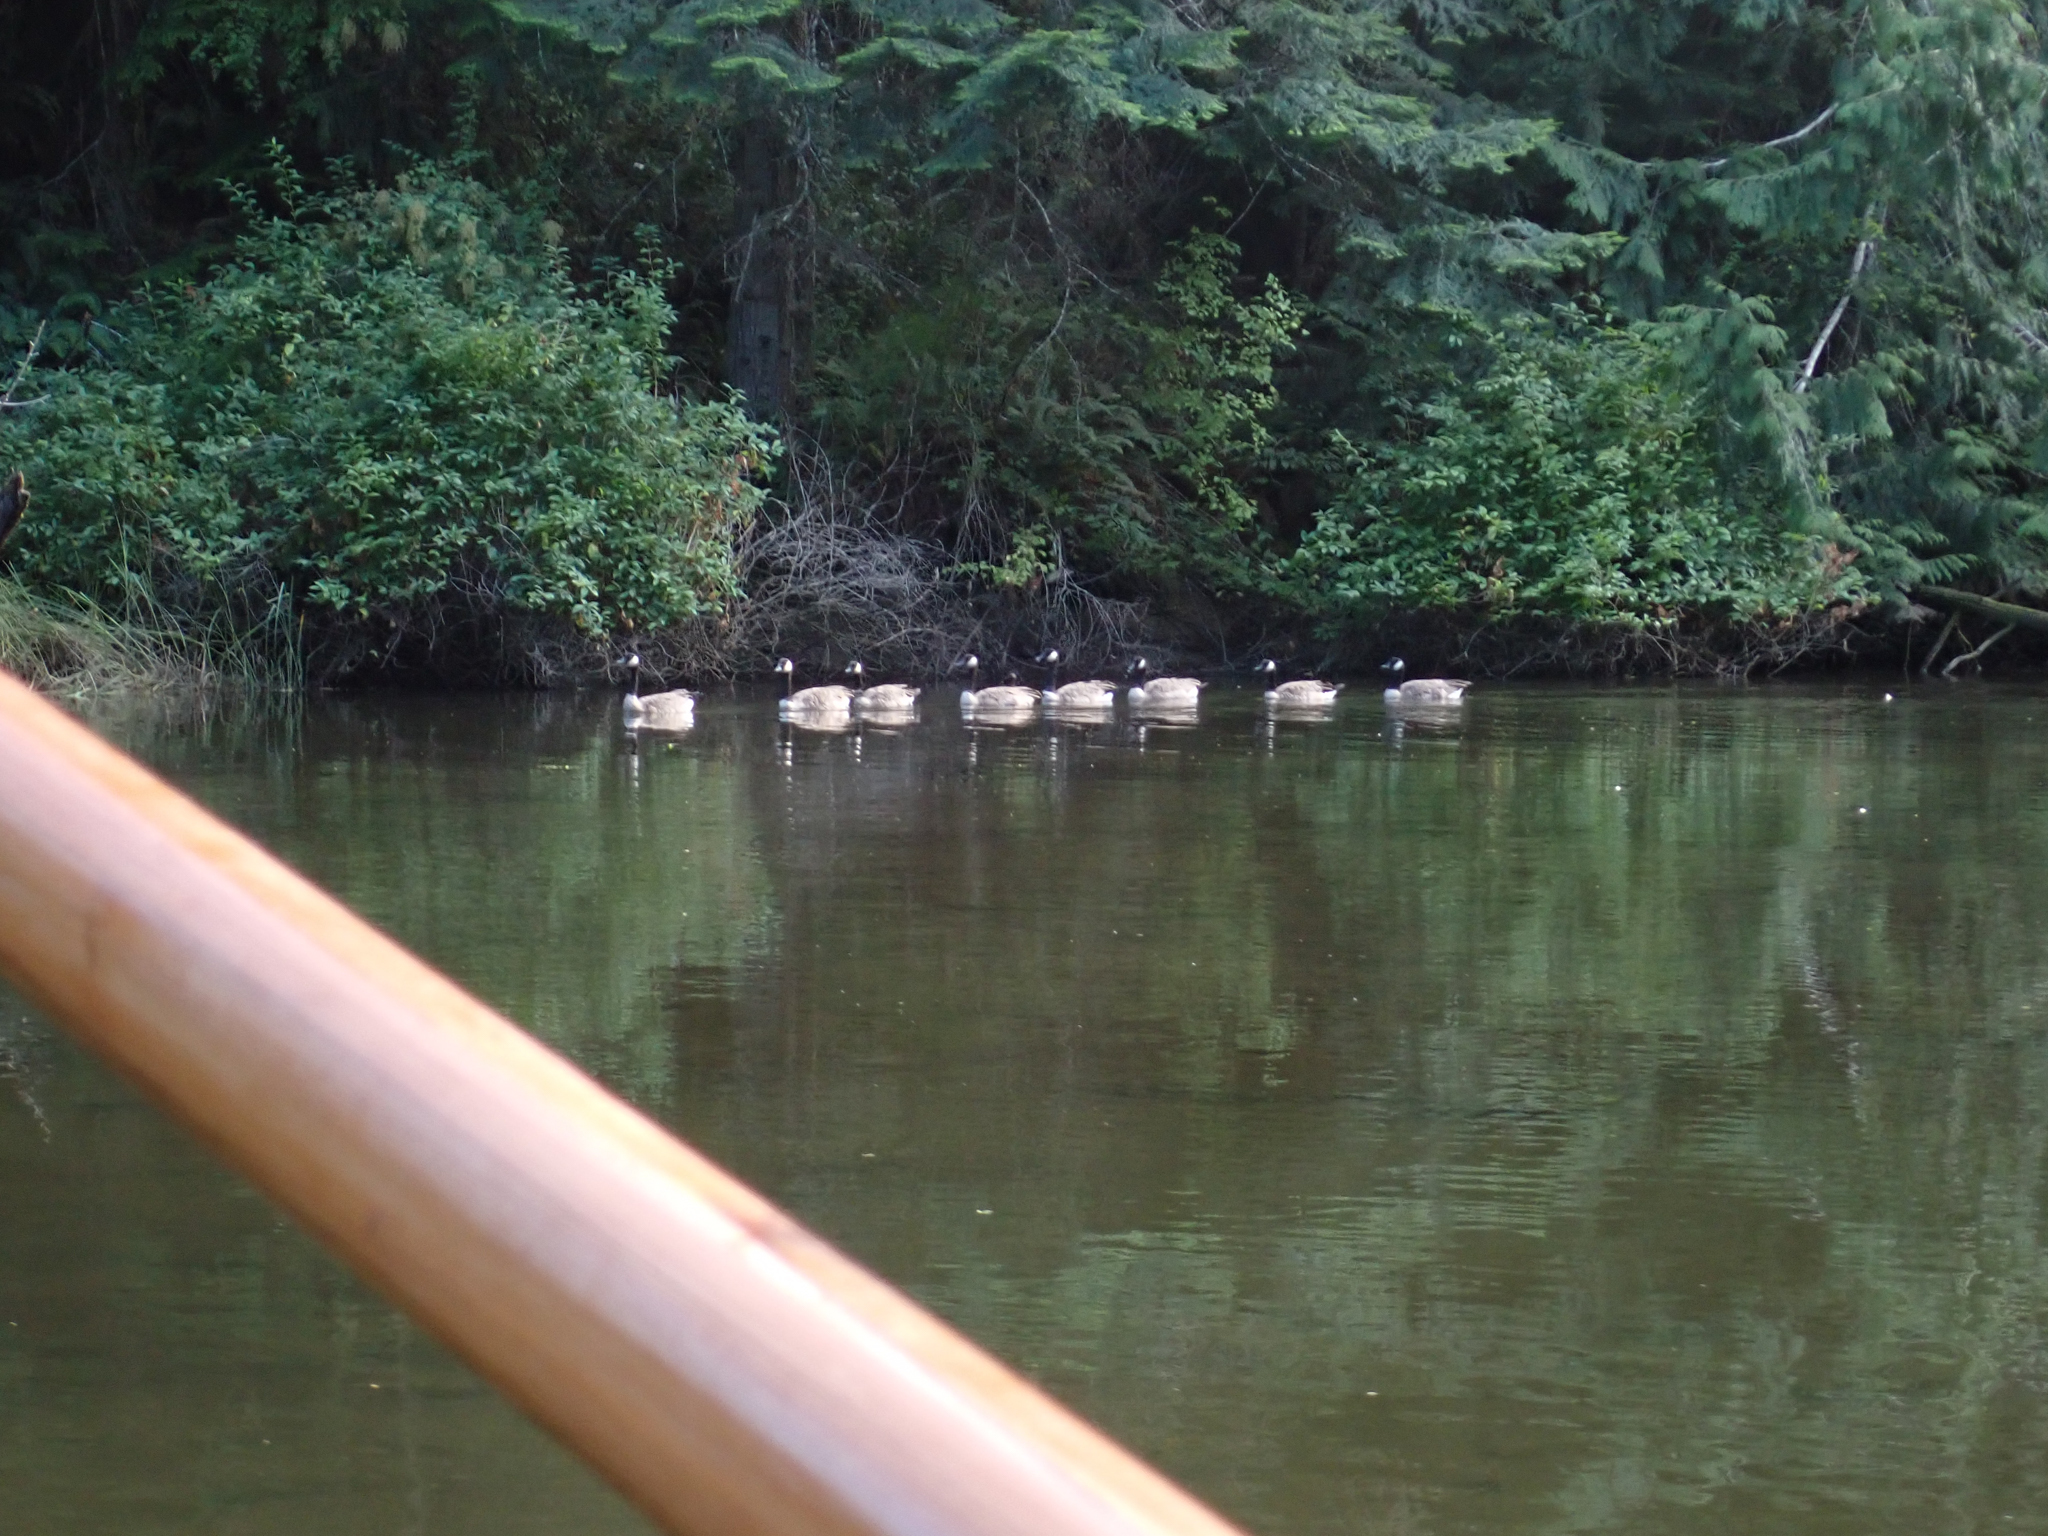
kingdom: Animalia
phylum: Chordata
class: Aves
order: Anseriformes
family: Anatidae
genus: Branta
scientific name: Branta canadensis
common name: Canada goose
